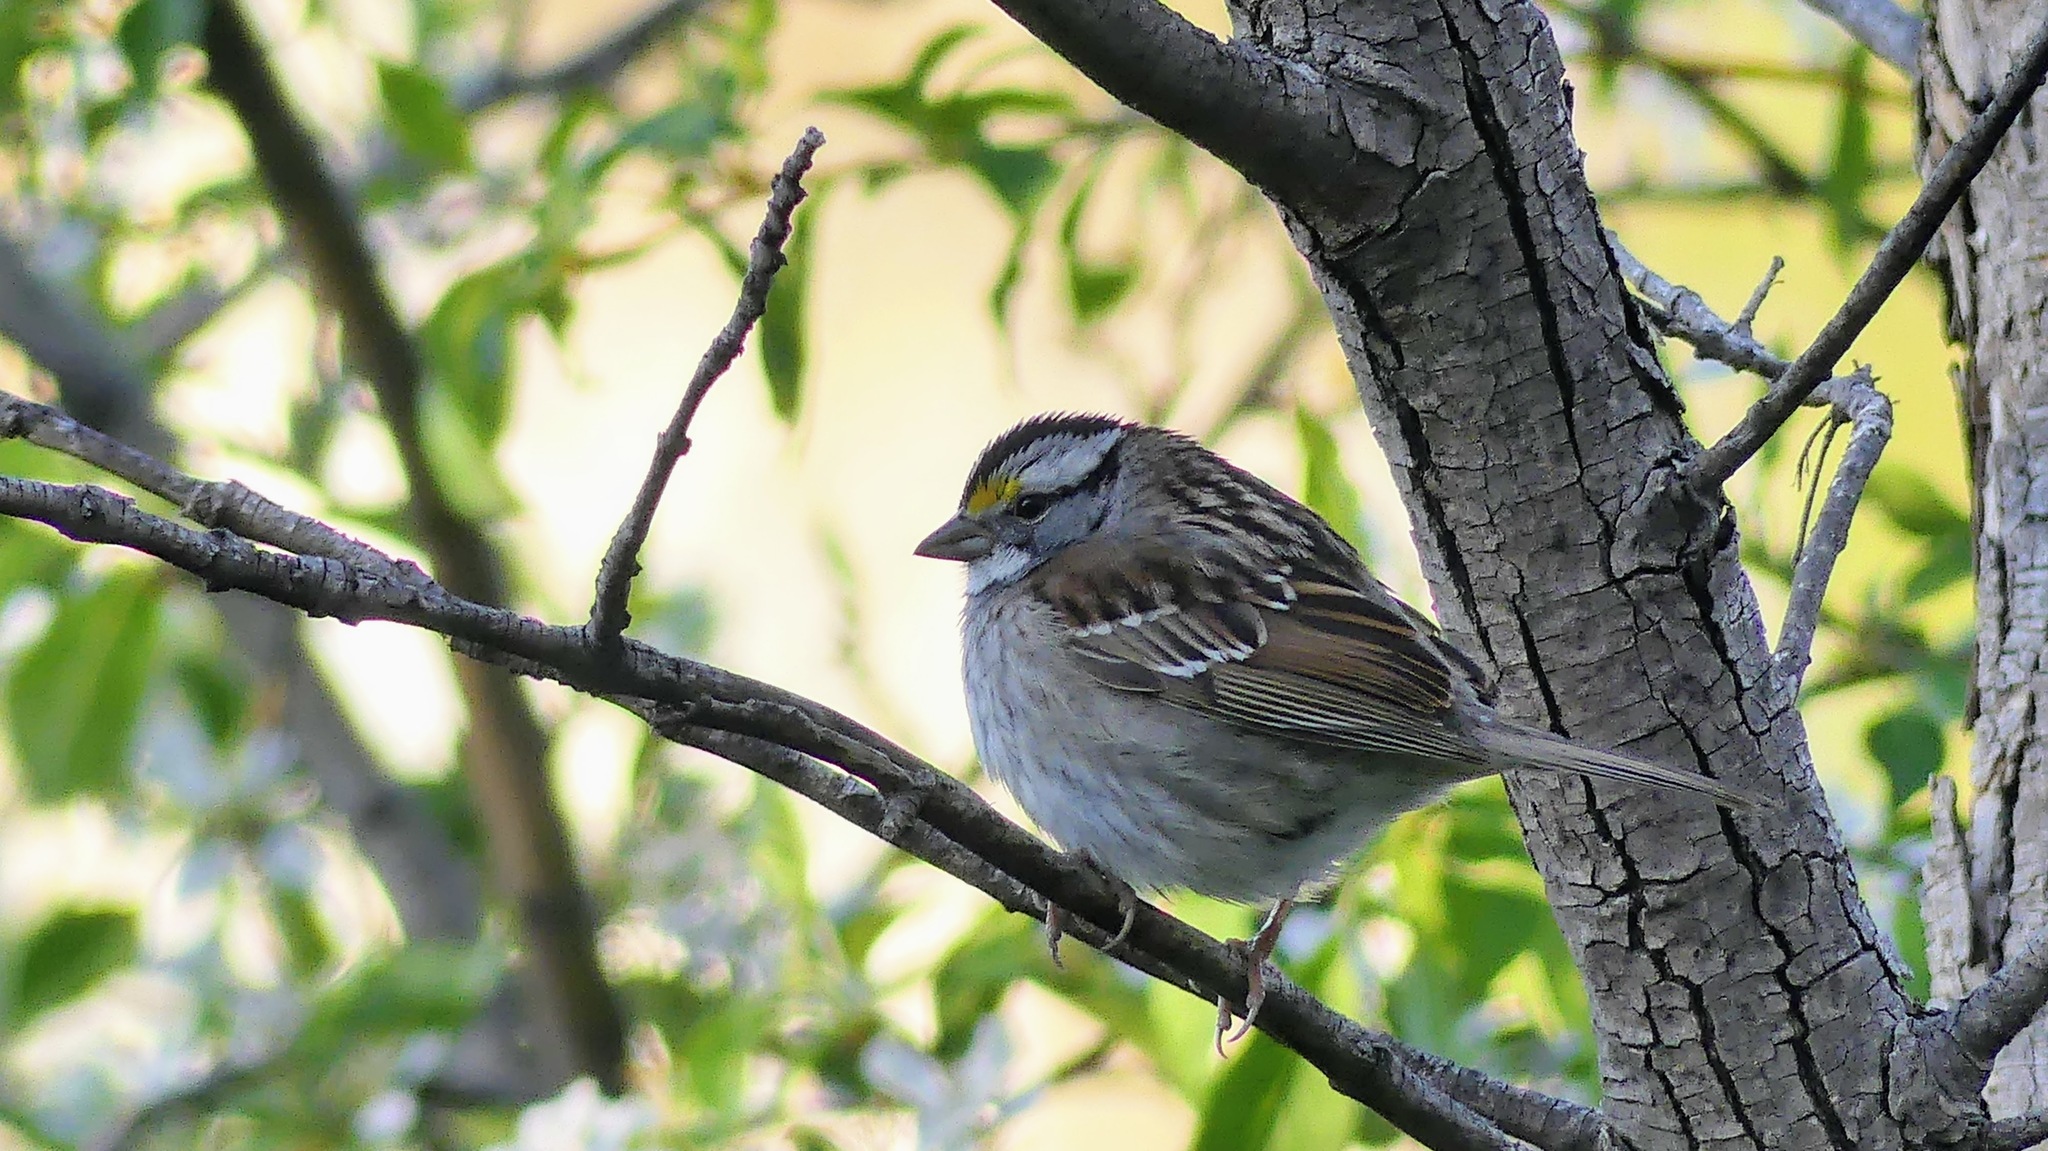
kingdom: Animalia
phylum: Chordata
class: Aves
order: Passeriformes
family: Passerellidae
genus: Zonotrichia
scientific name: Zonotrichia albicollis
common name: White-throated sparrow
